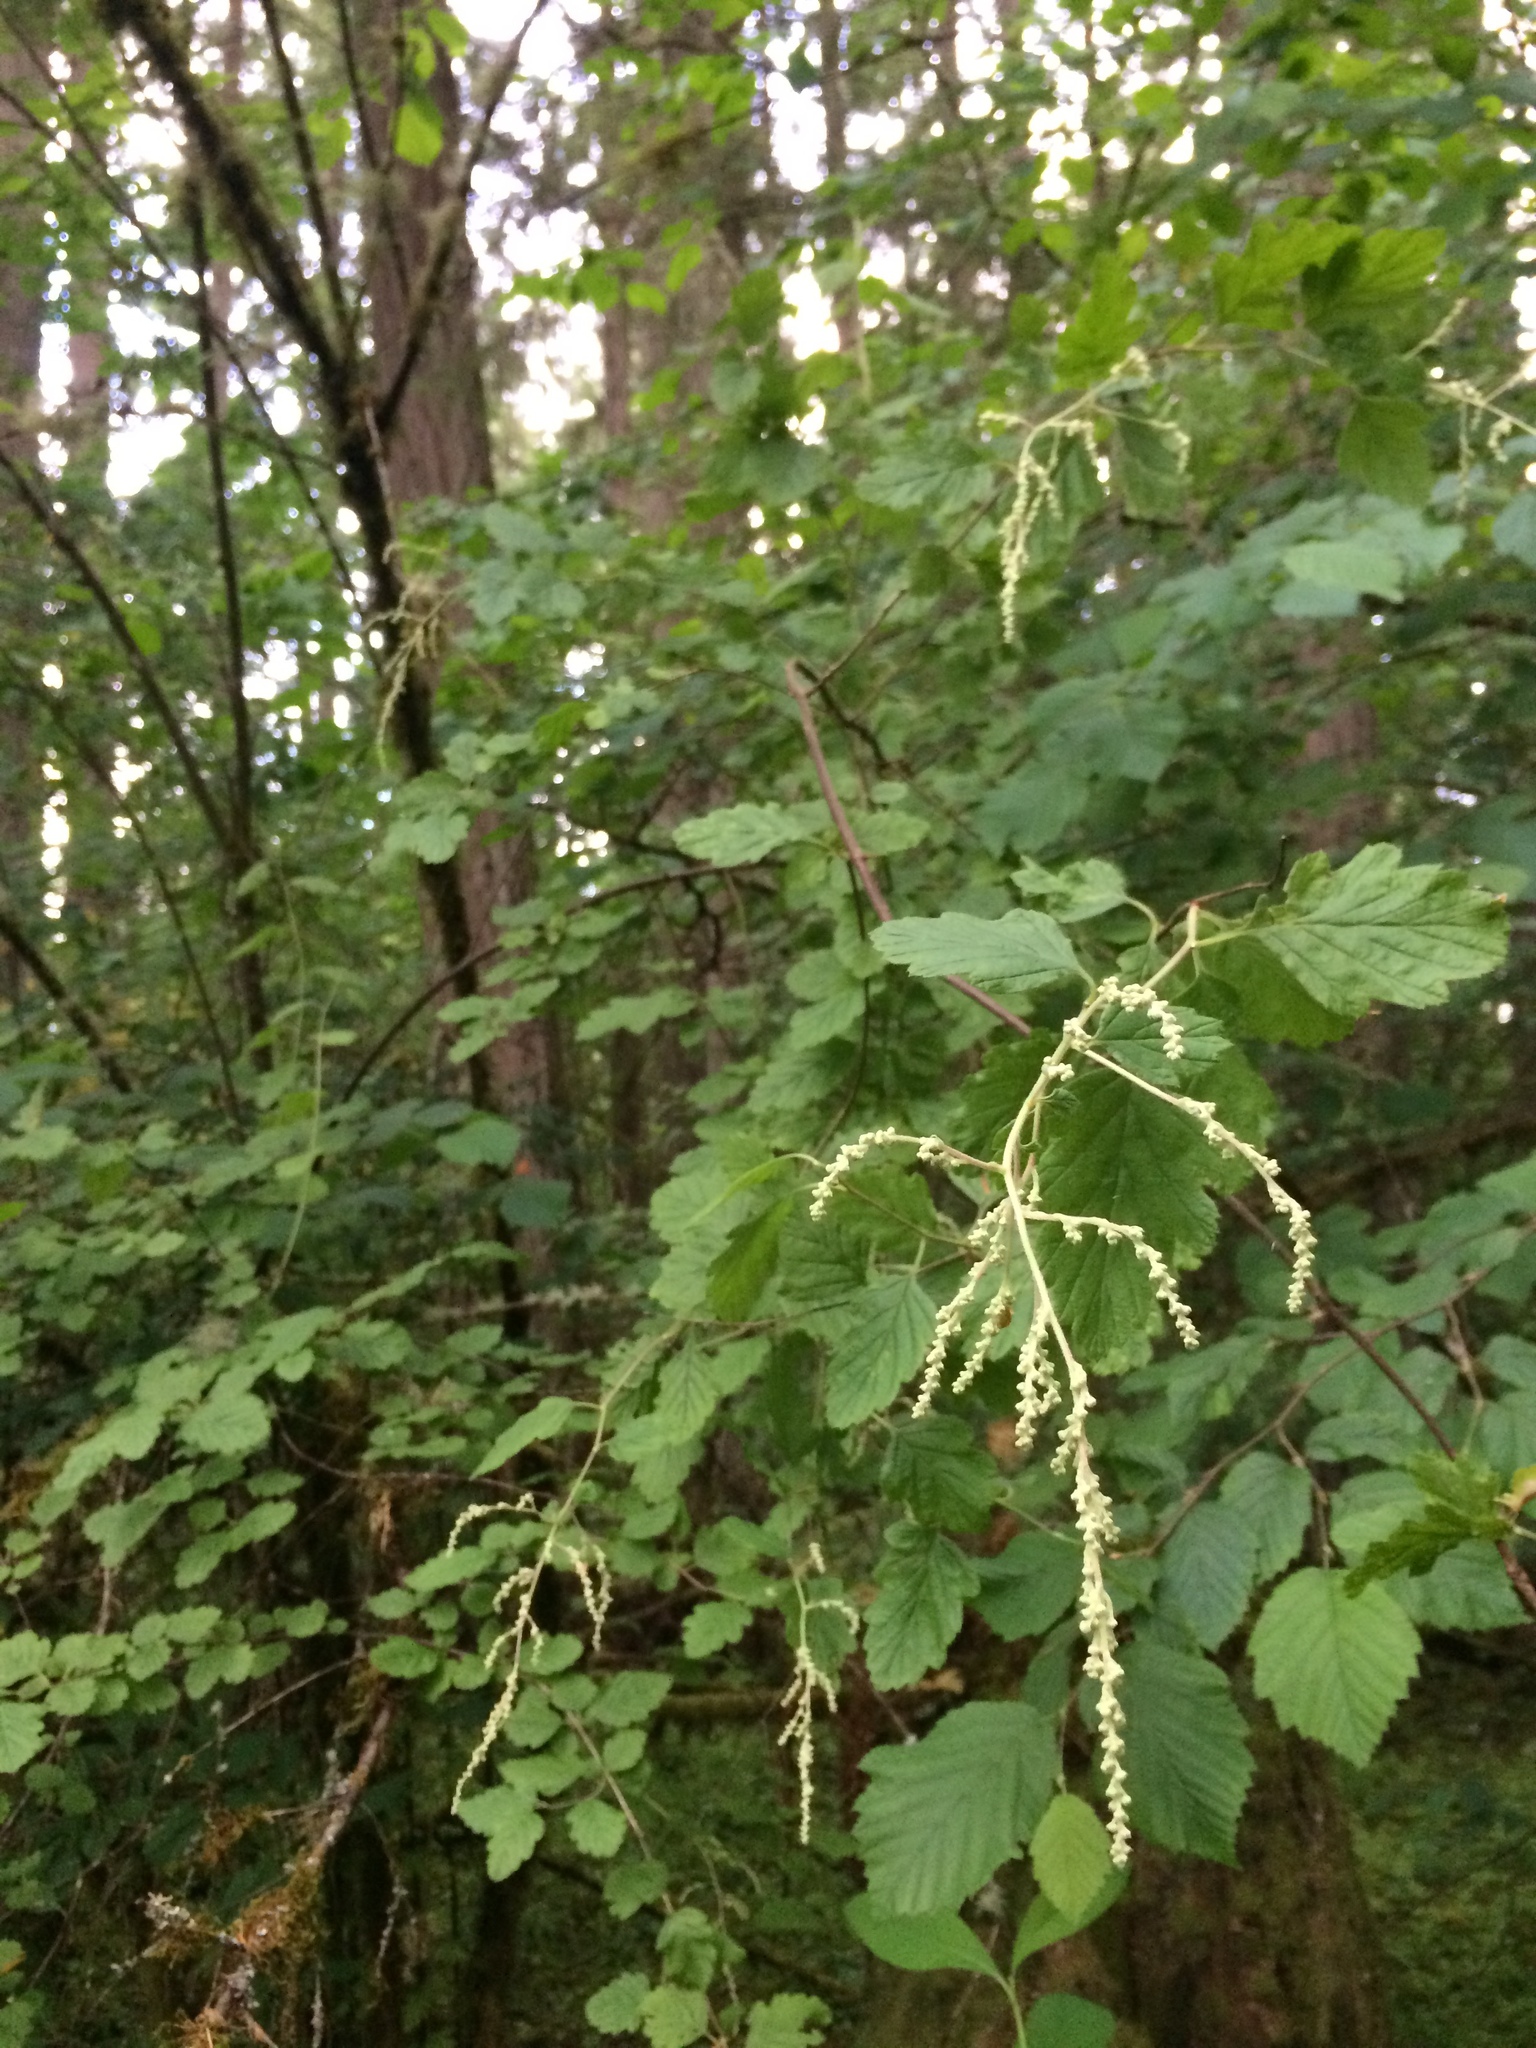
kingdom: Plantae
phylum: Tracheophyta
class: Magnoliopsida
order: Rosales
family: Rosaceae
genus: Holodiscus
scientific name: Holodiscus discolor
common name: Oceanspray
